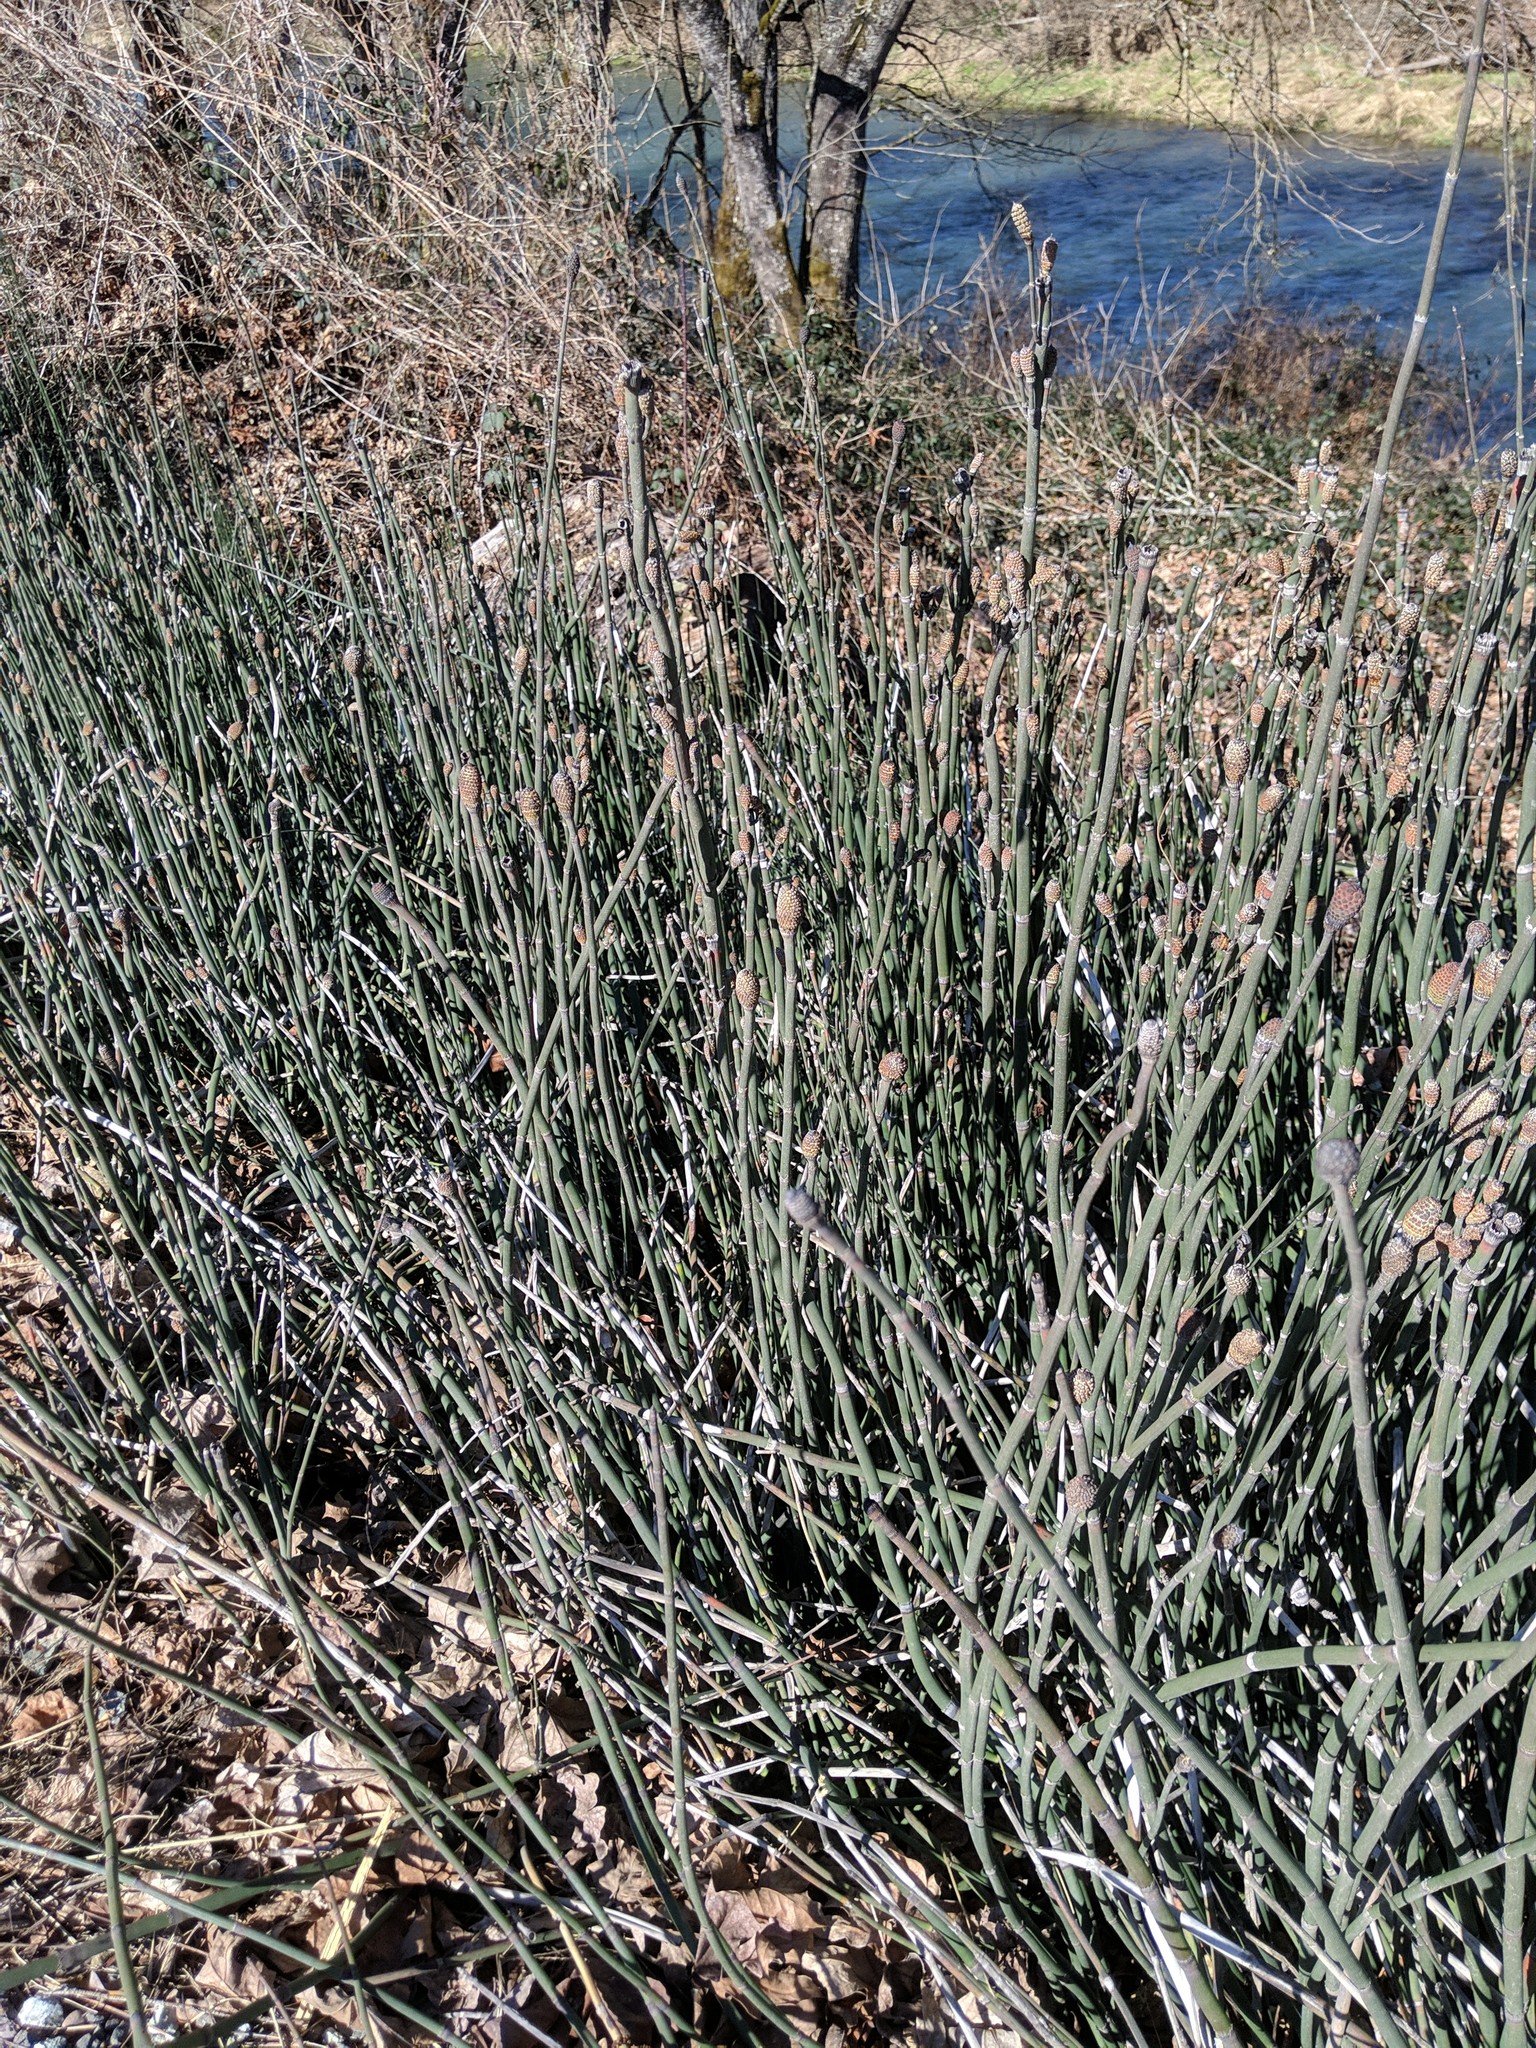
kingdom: Plantae
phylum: Tracheophyta
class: Polypodiopsida
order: Equisetales
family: Equisetaceae
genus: Equisetum
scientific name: Equisetum praealtum
